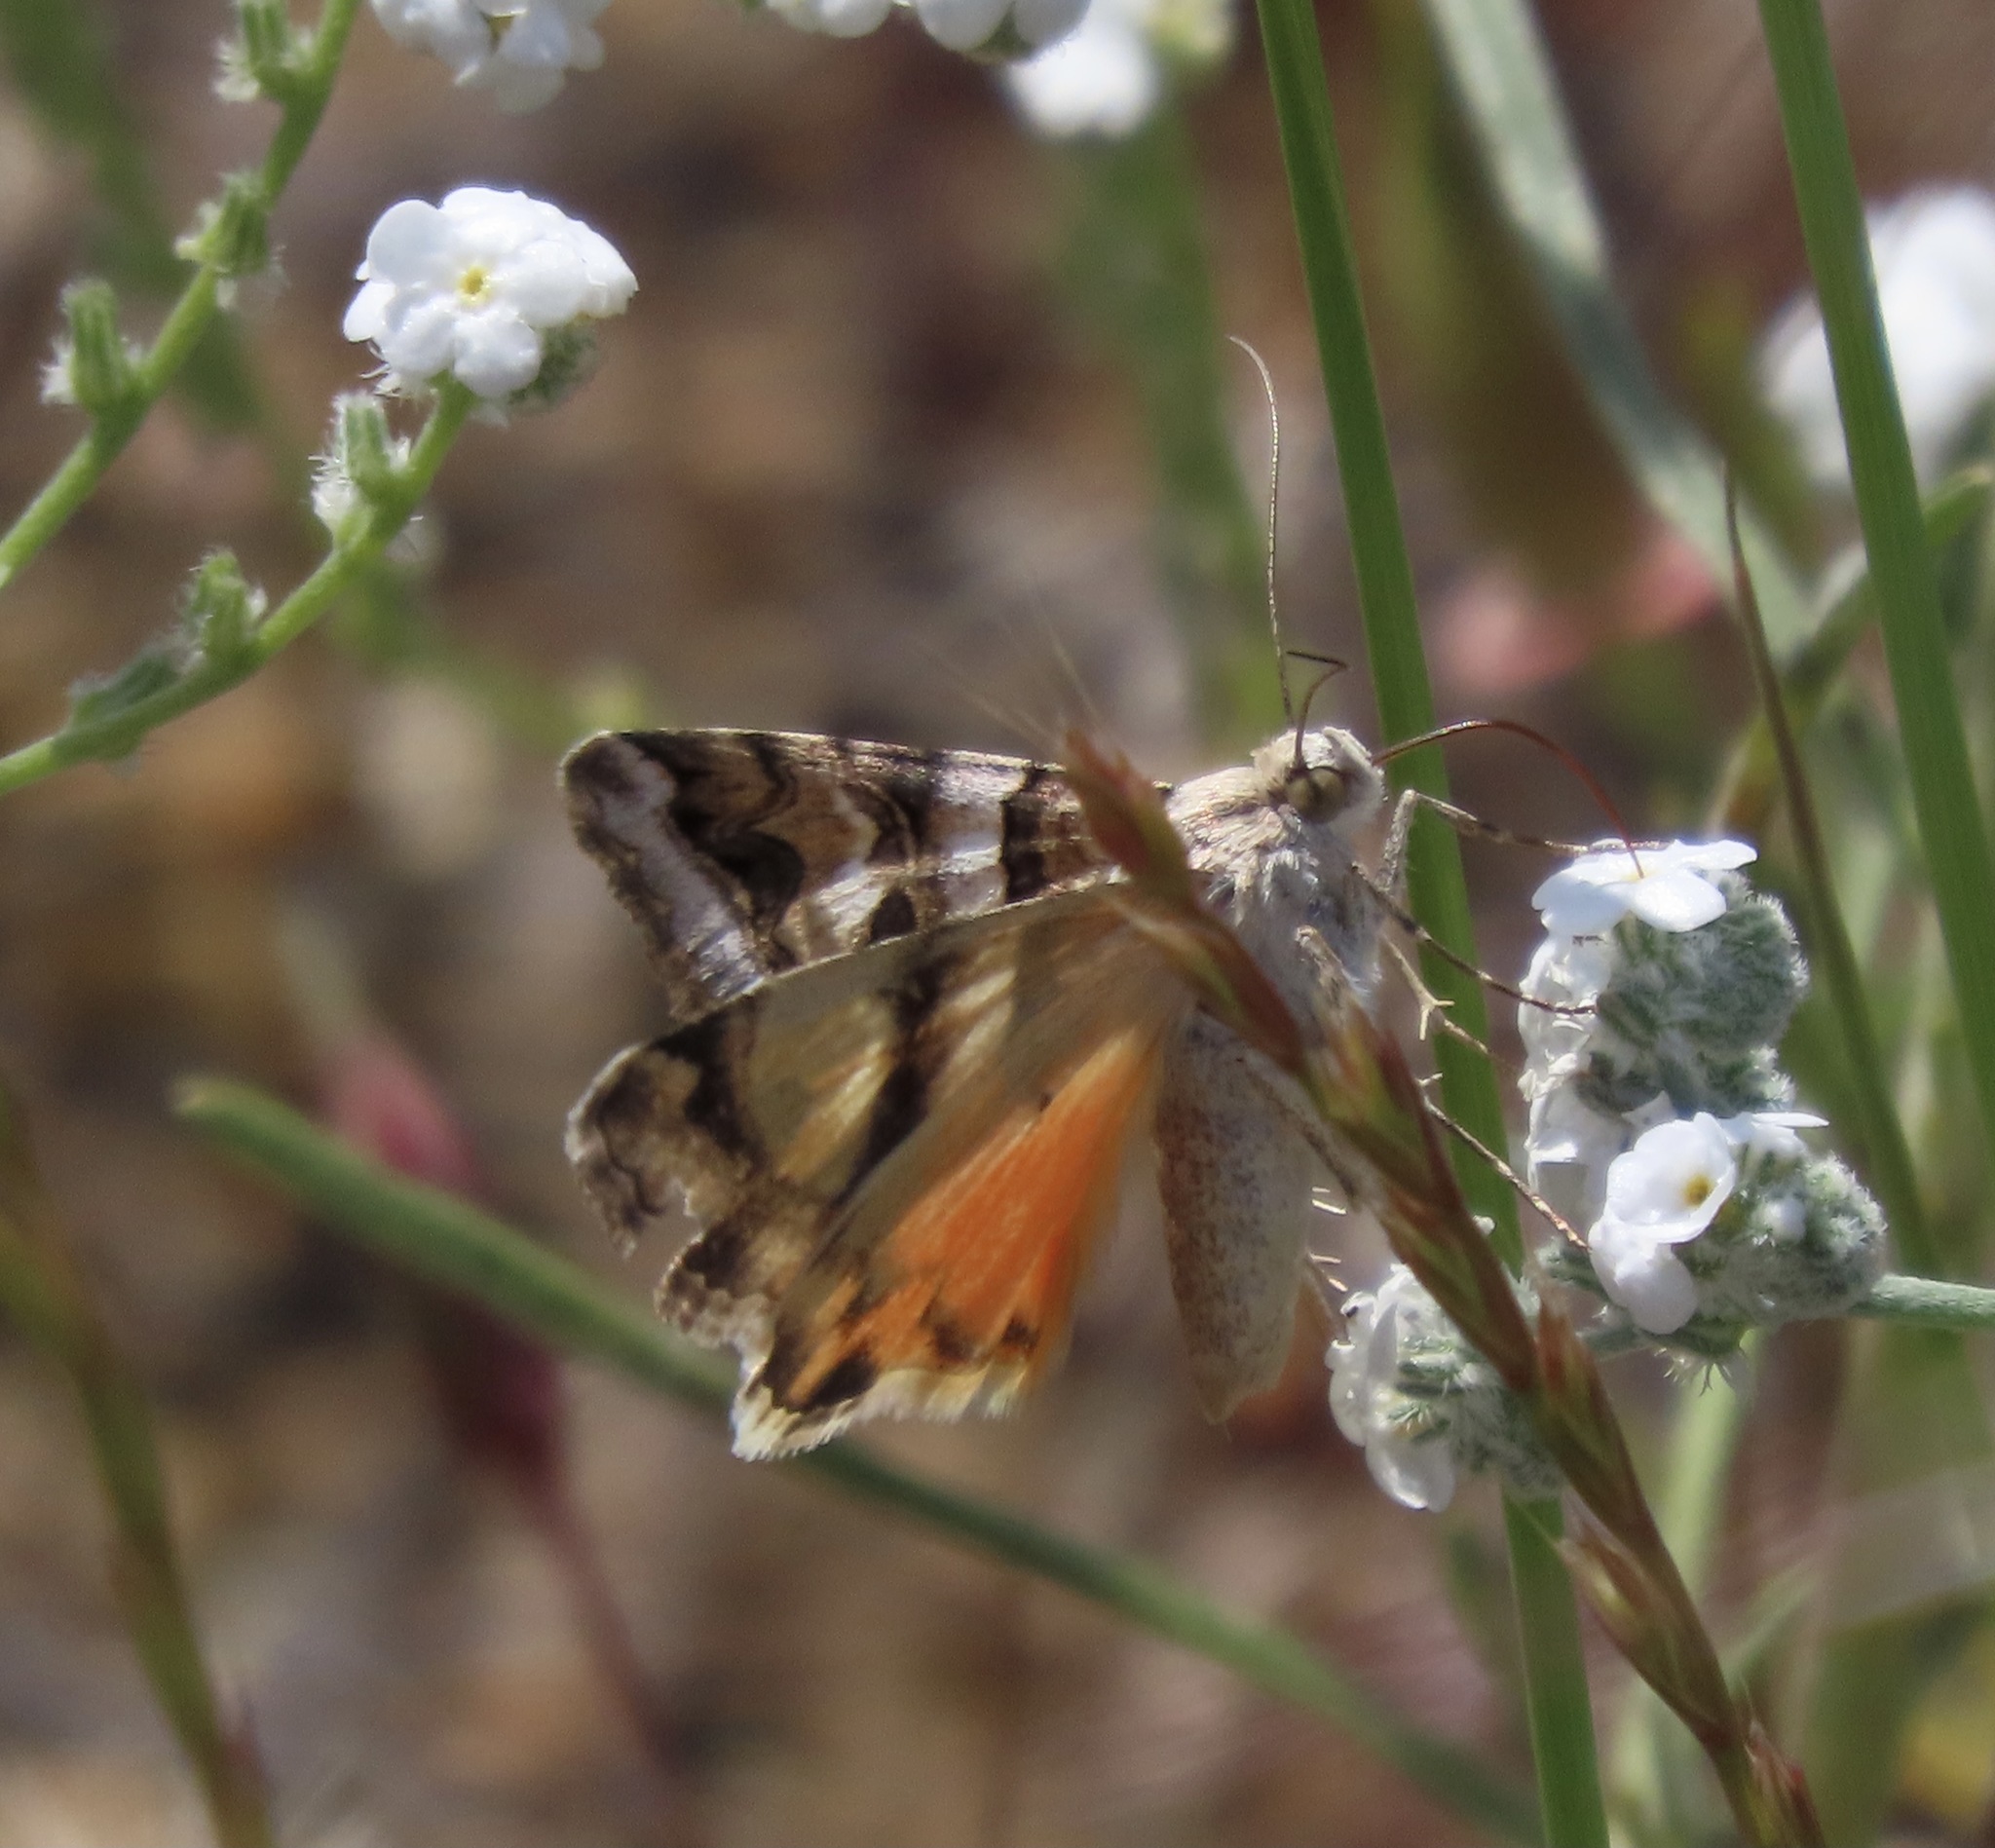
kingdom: Animalia
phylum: Arthropoda
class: Insecta
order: Lepidoptera
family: Erebidae
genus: Drasteria
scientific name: Drasteria howlandii
